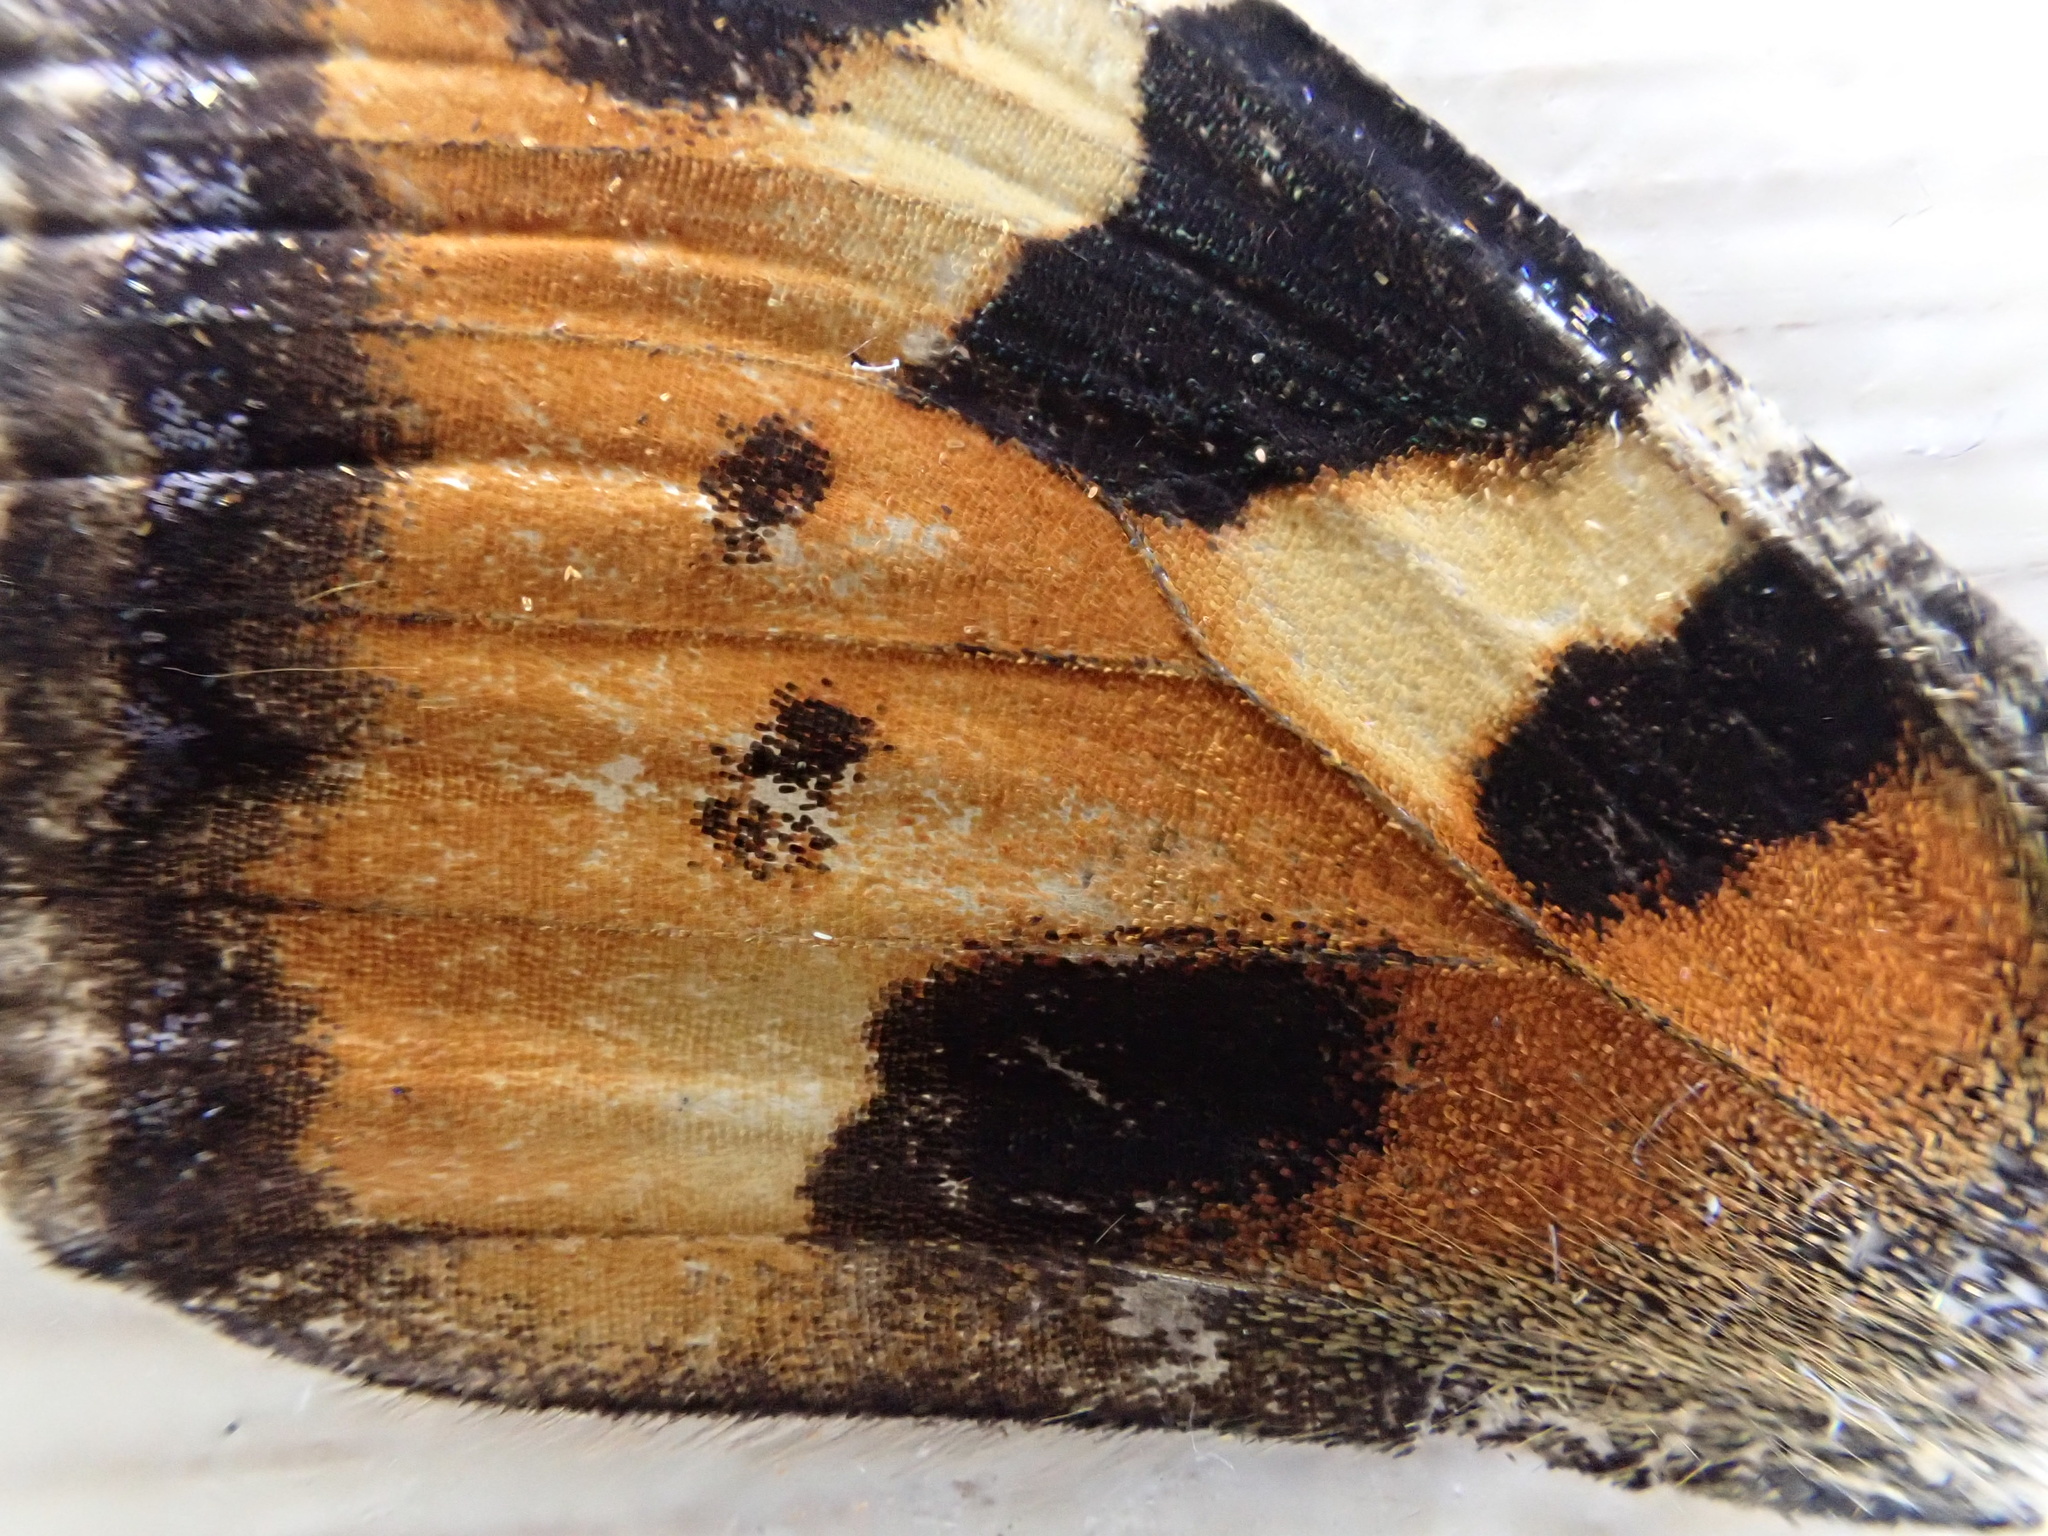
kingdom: Animalia
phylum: Arthropoda
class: Insecta
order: Lepidoptera
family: Nymphalidae
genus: Aglais
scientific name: Aglais urticae
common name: Small tortoiseshell
